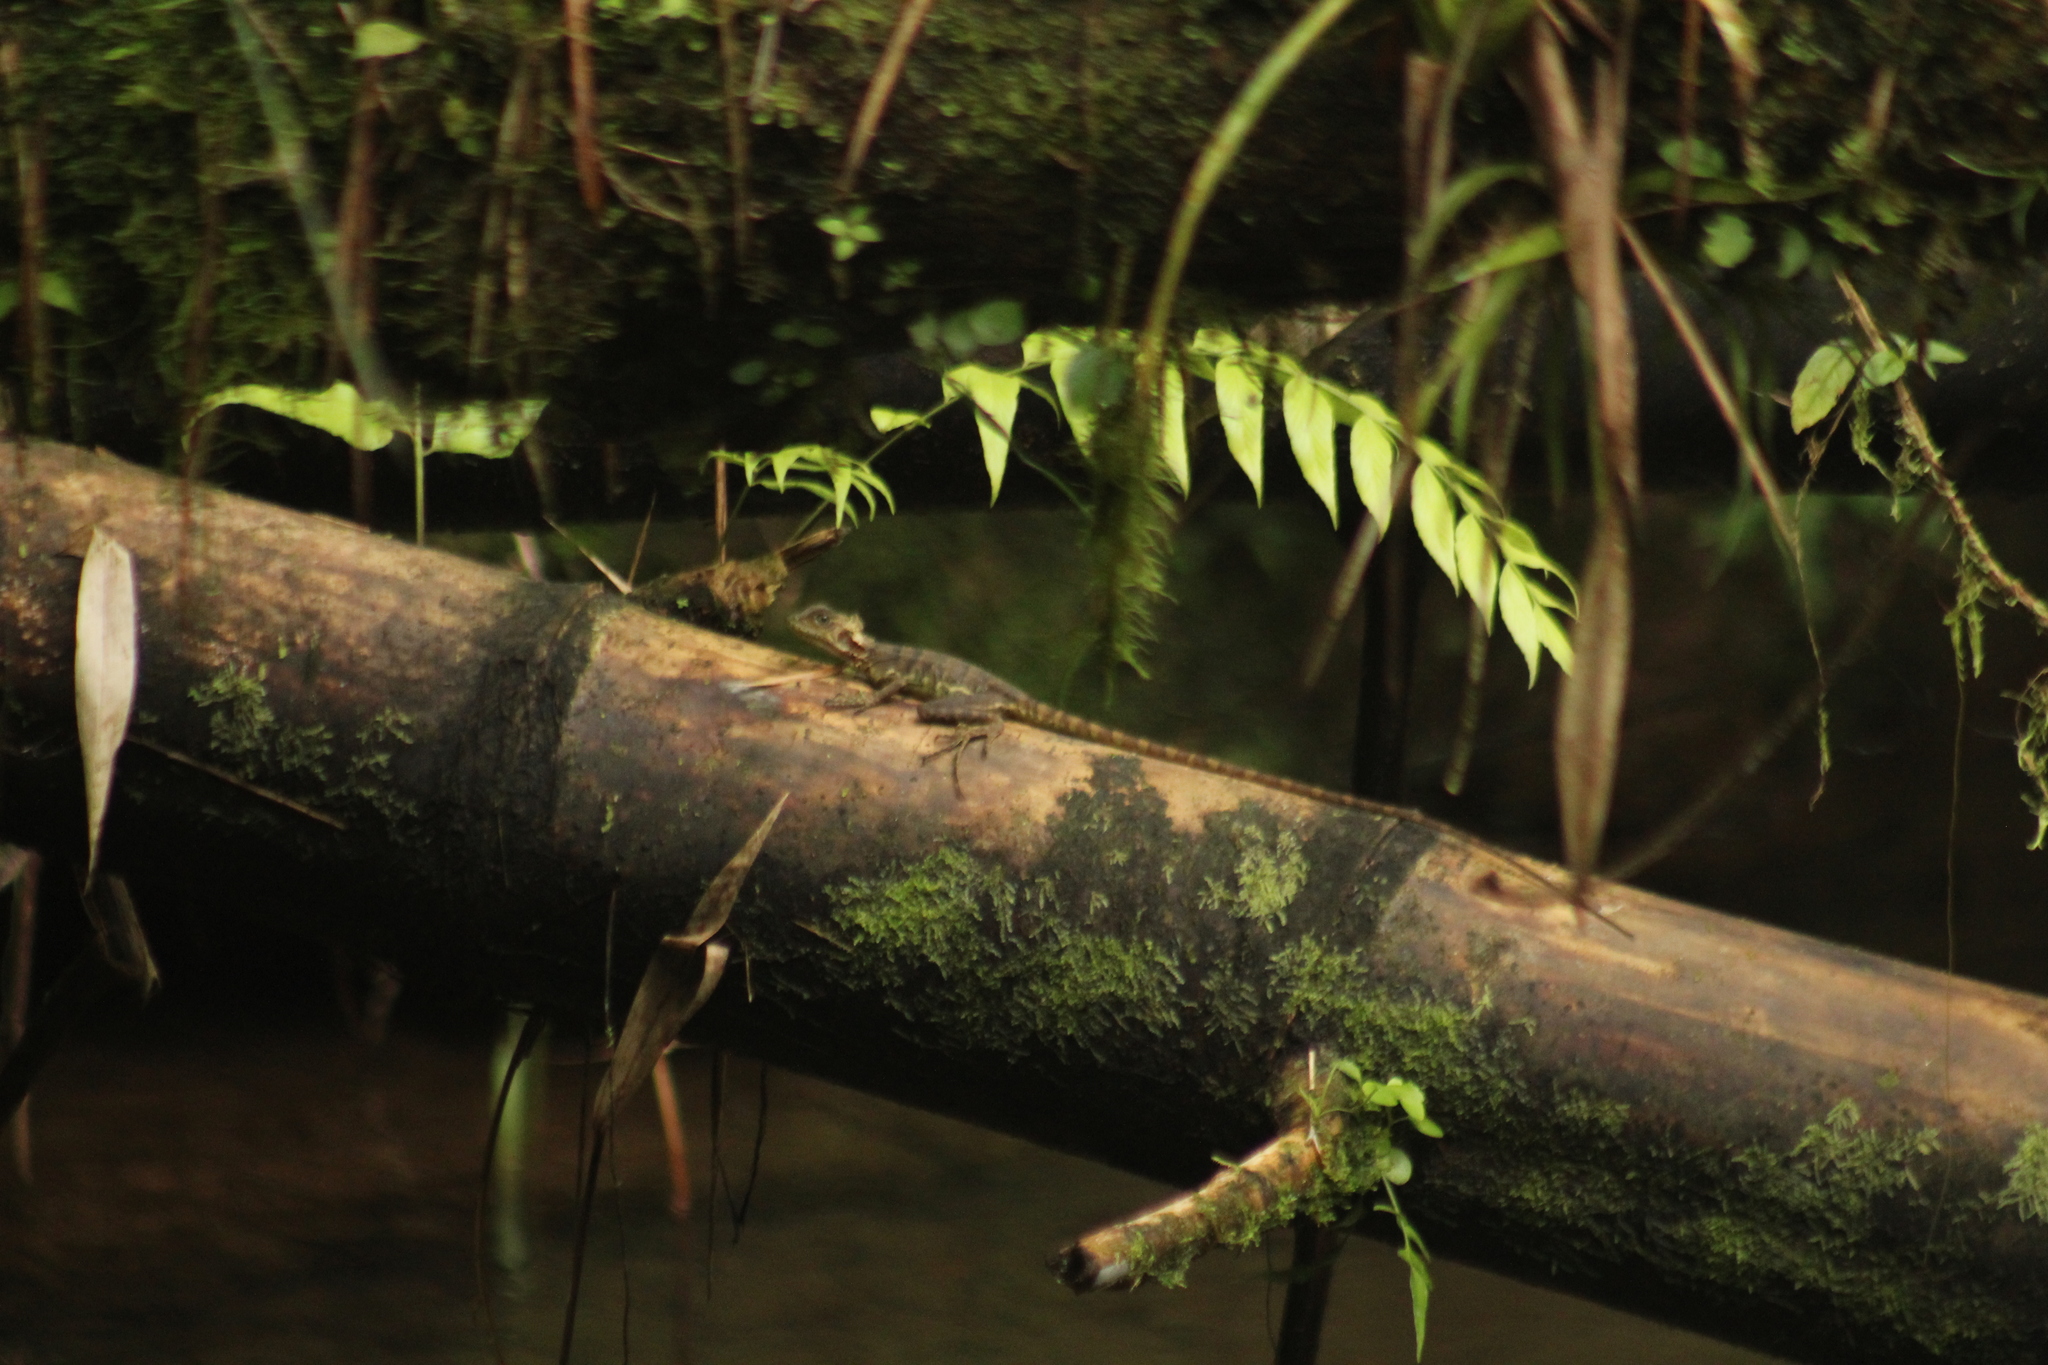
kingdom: Animalia
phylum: Chordata
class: Squamata
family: Corytophanidae
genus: Basiliscus
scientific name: Basiliscus galeritus
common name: Western basilisk
